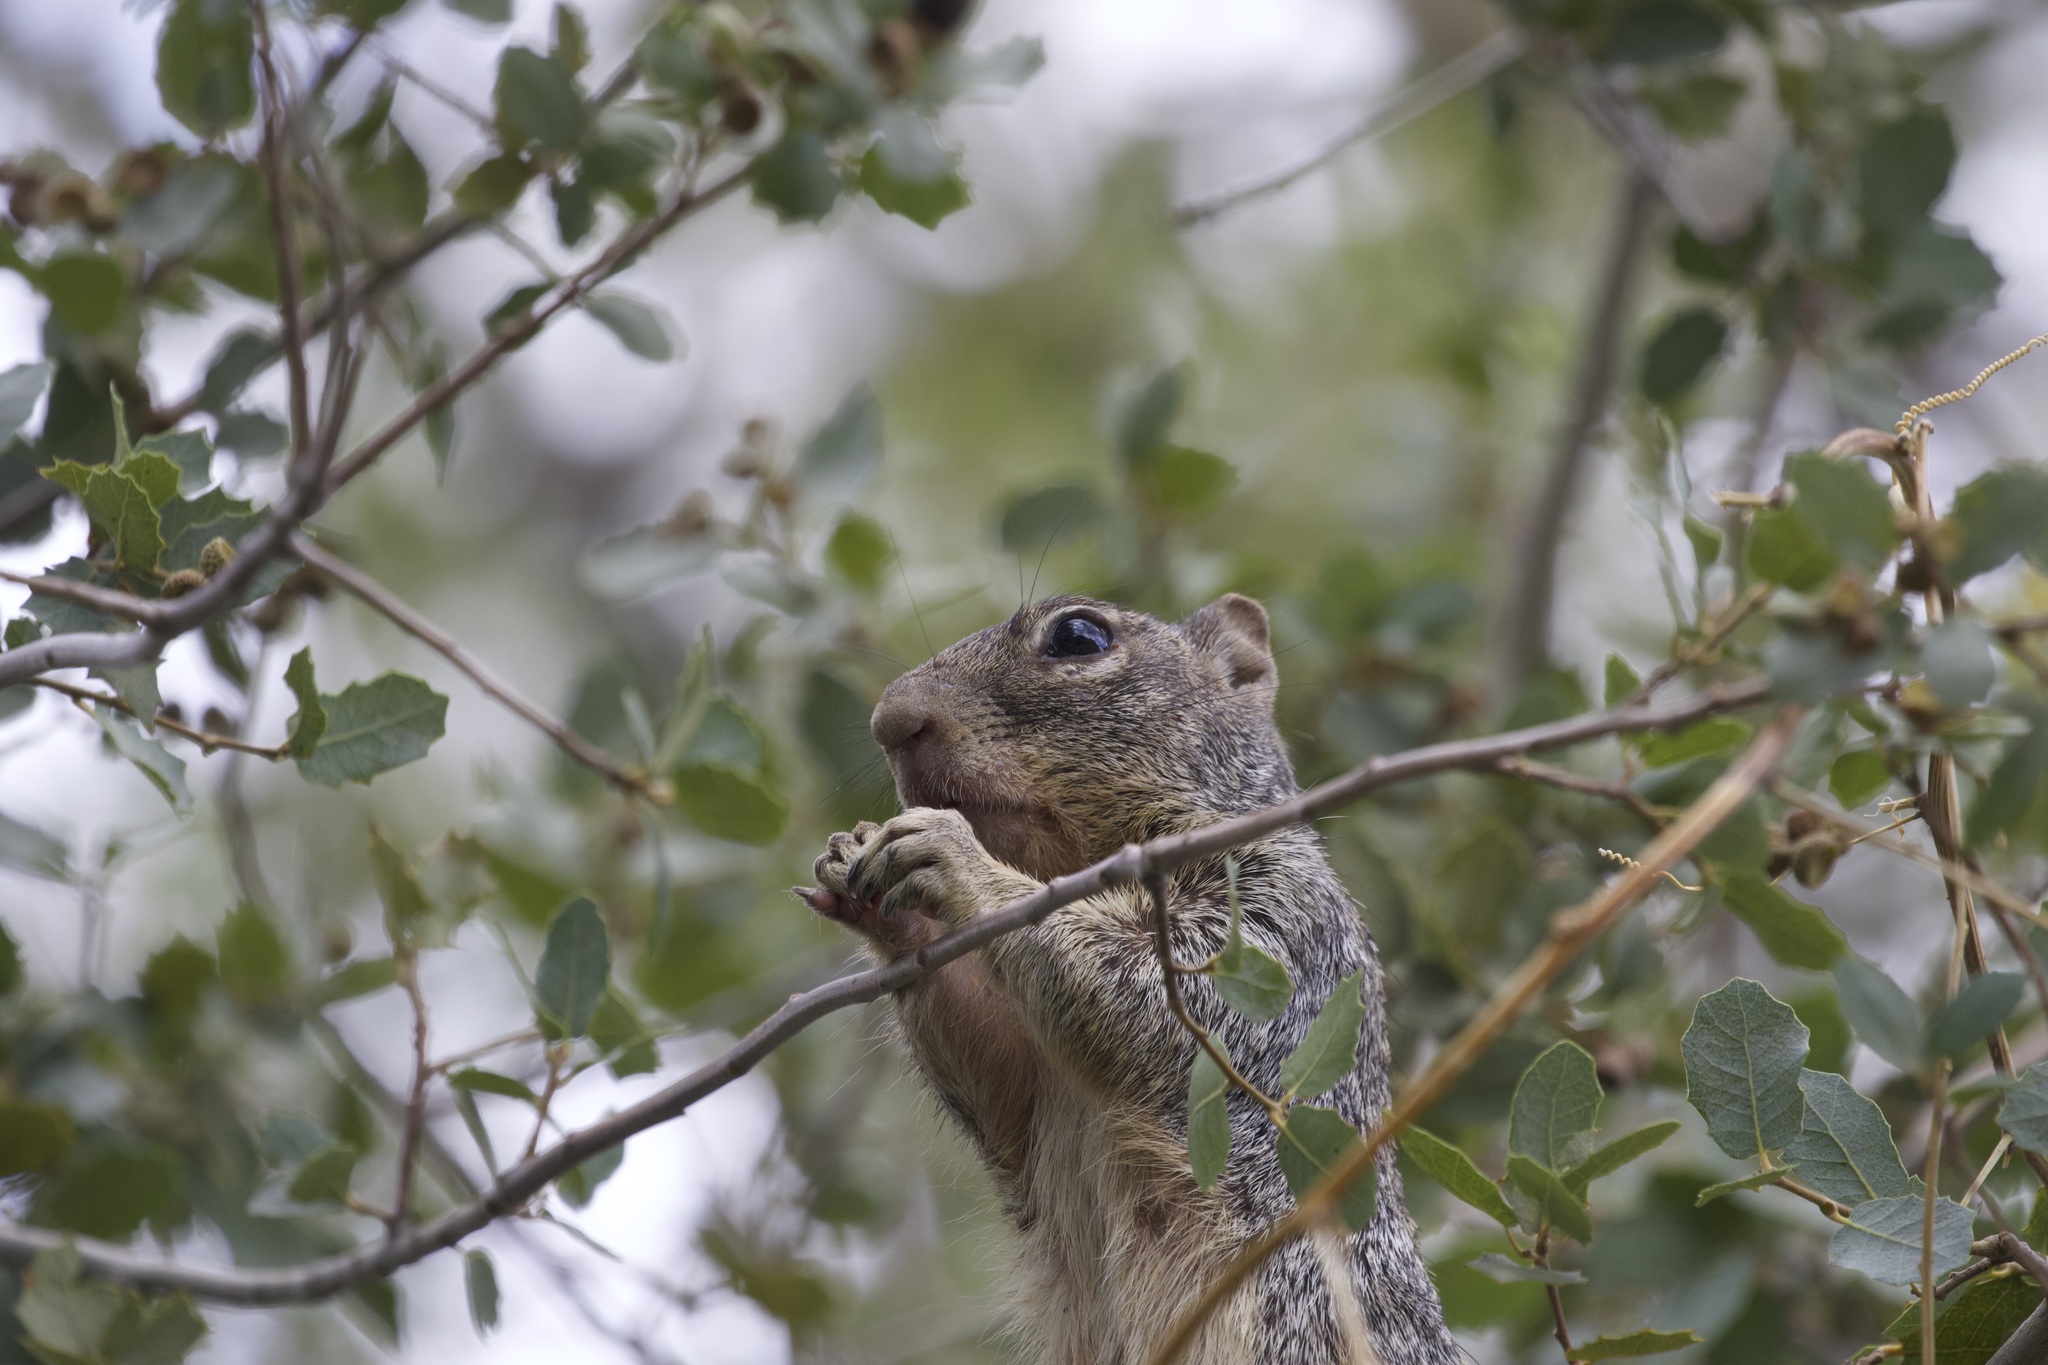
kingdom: Animalia
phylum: Chordata
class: Mammalia
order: Rodentia
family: Sciuridae
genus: Otospermophilus
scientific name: Otospermophilus variegatus
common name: Rock squirrel
